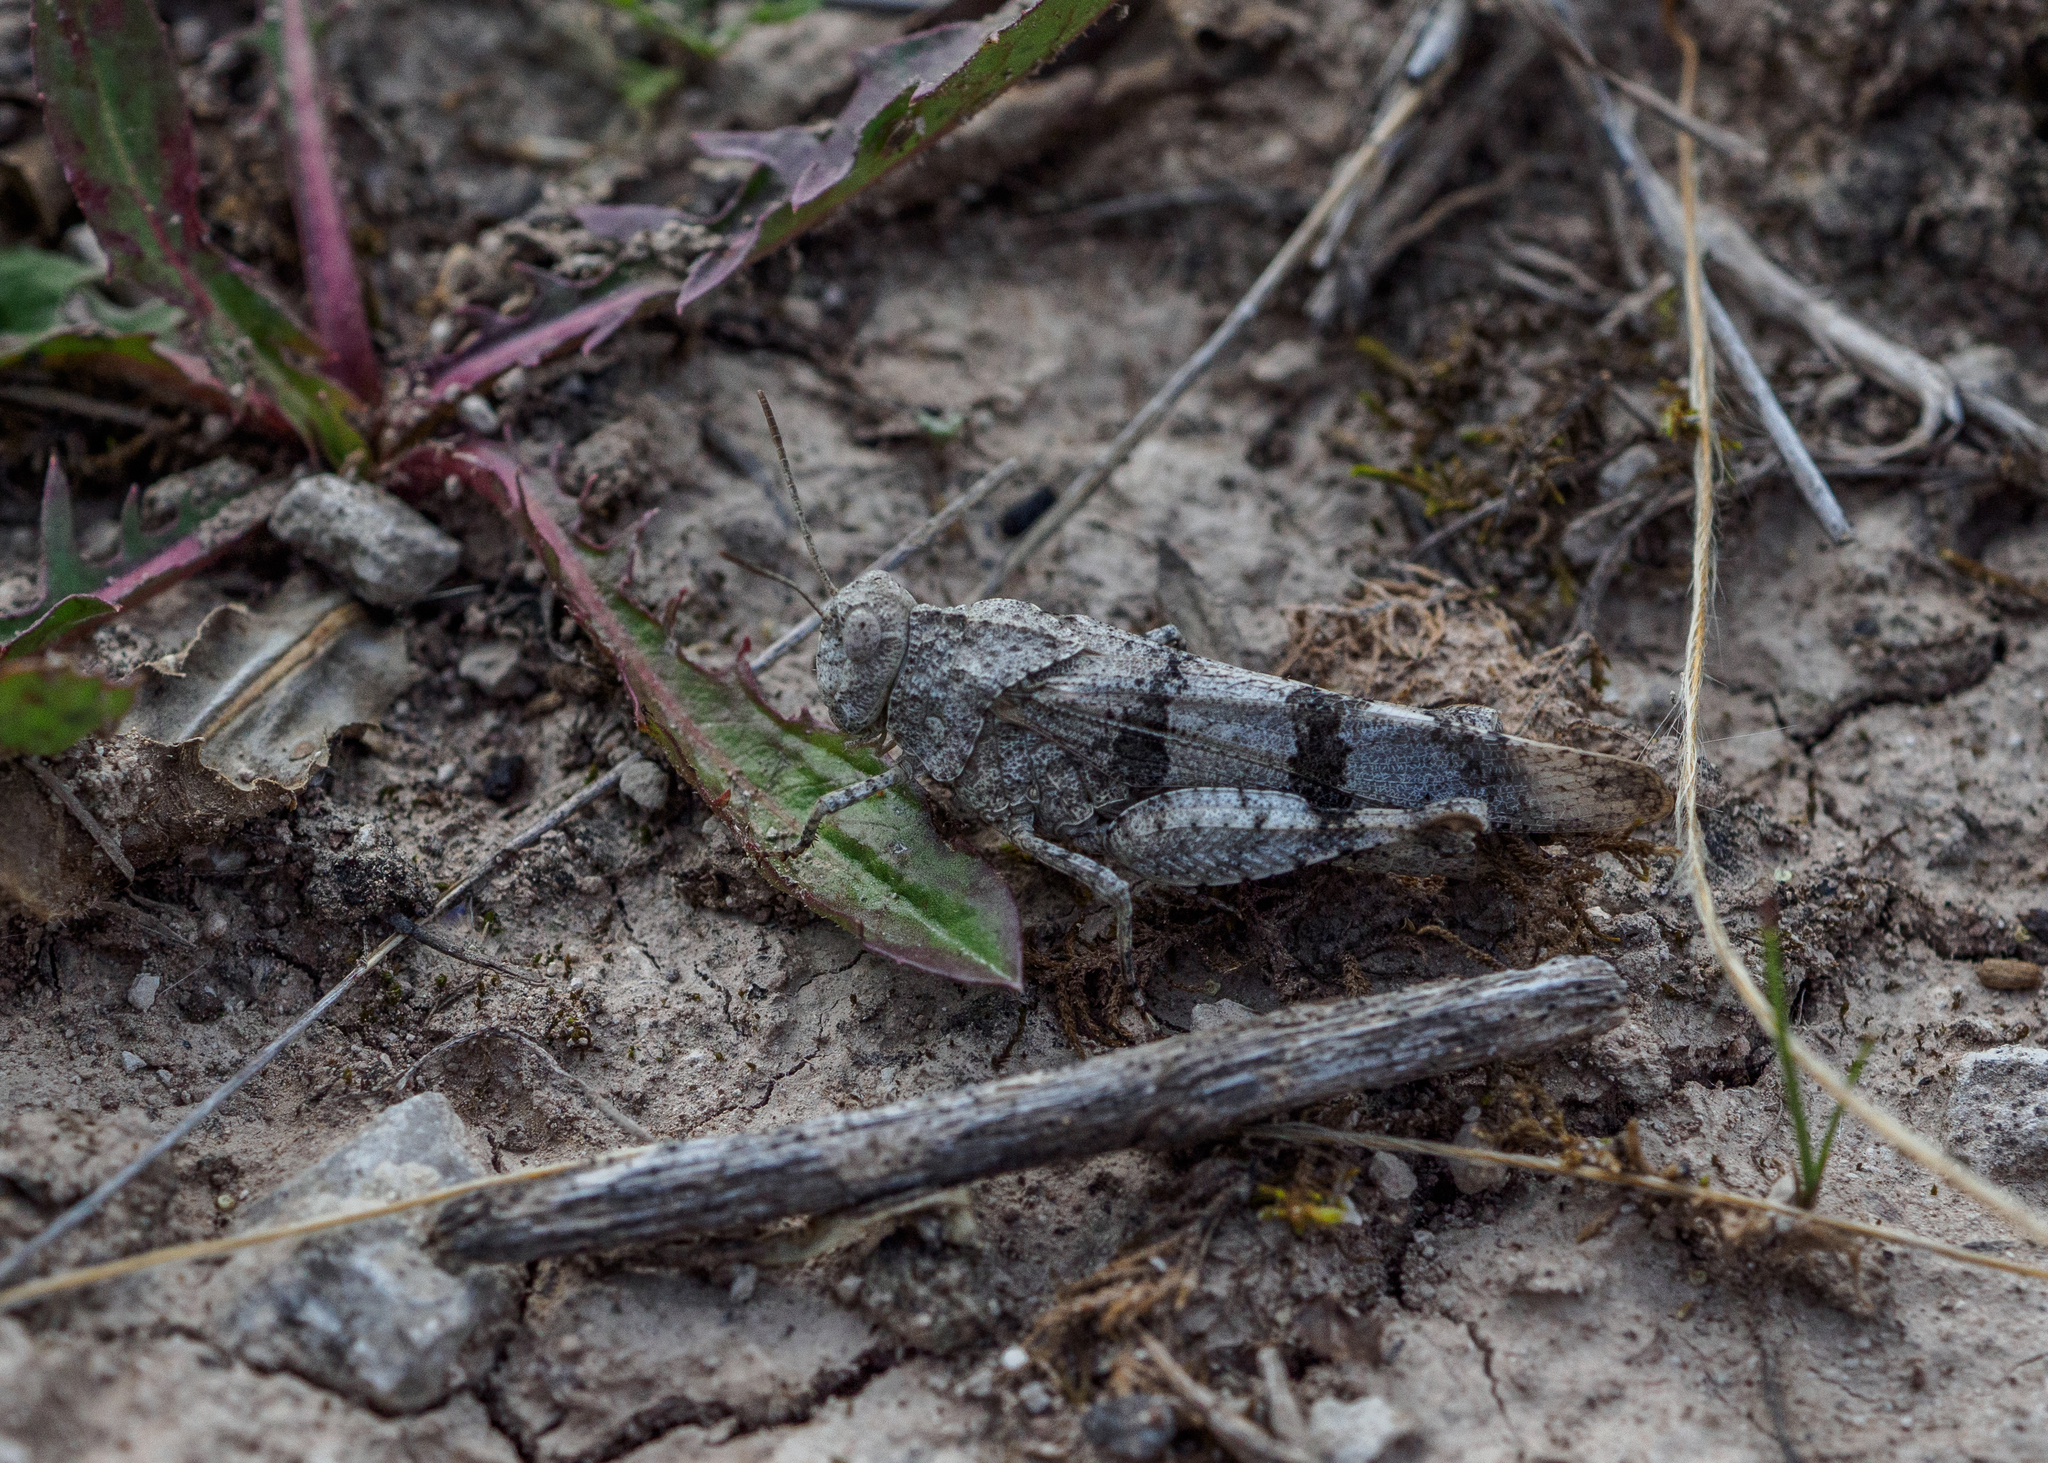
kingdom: Animalia
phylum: Arthropoda
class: Insecta
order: Orthoptera
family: Acrididae
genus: Oedipoda
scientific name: Oedipoda caerulescens
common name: Blue-winged grasshopper
